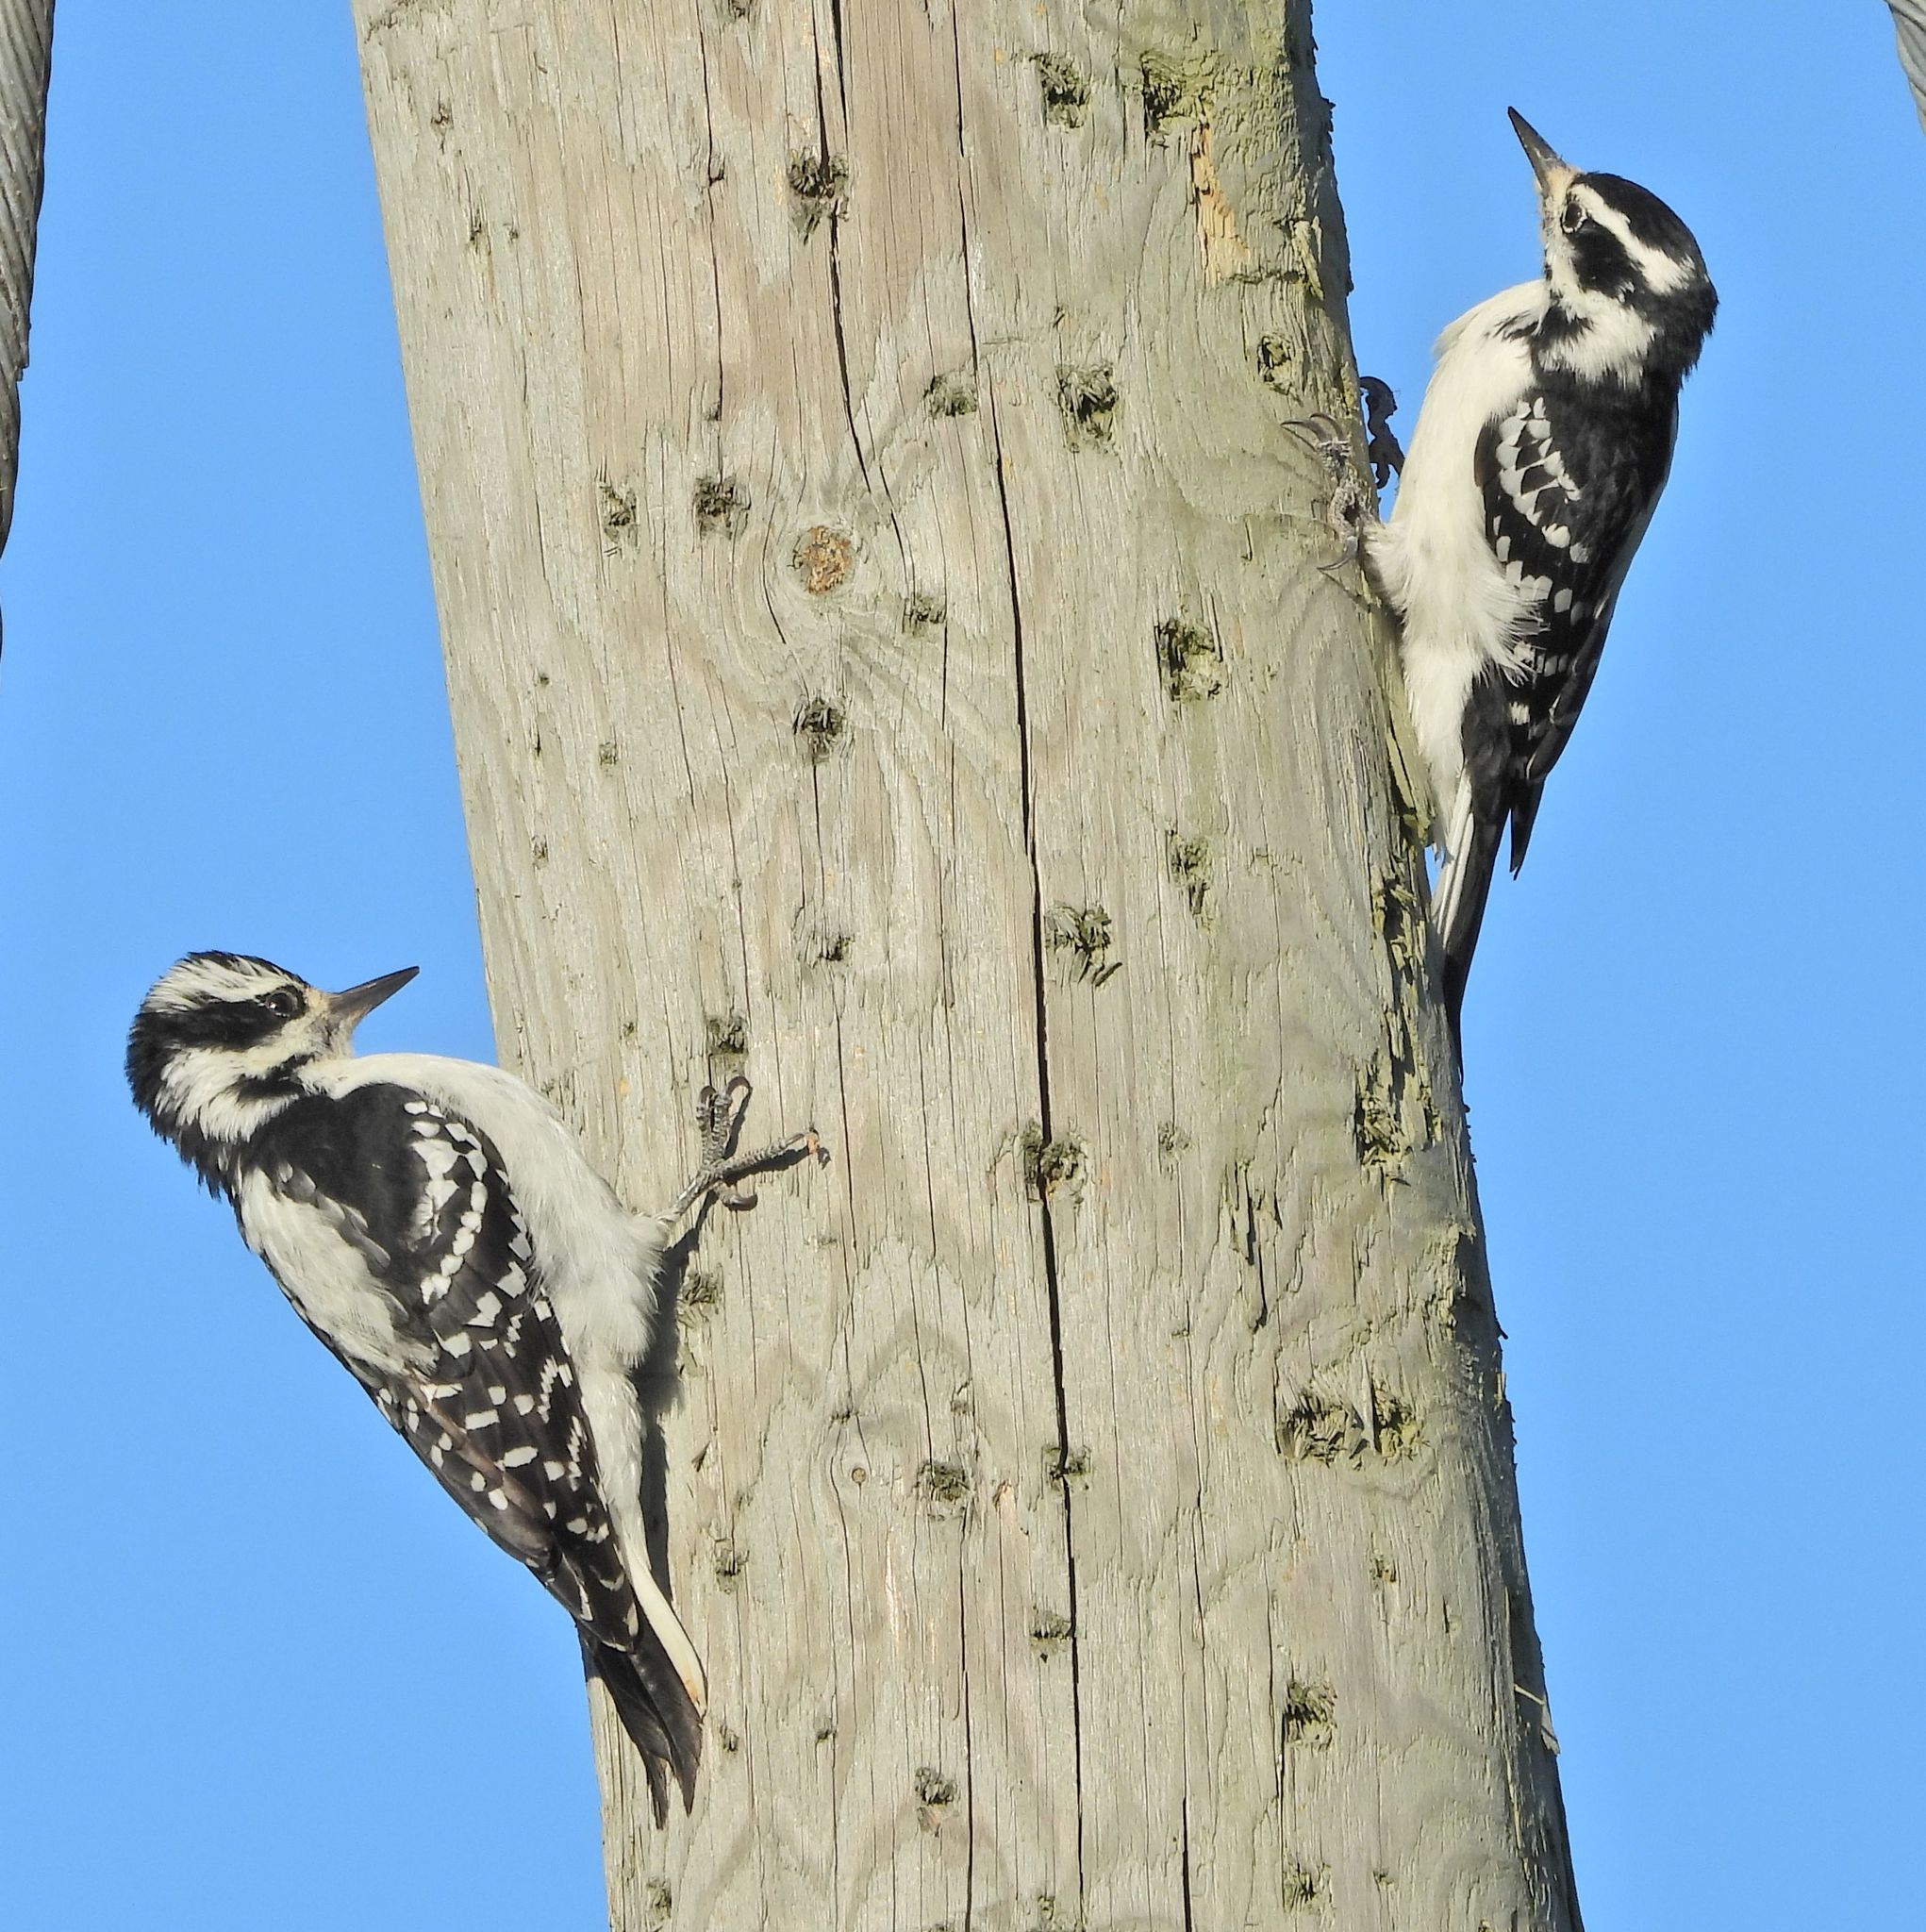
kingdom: Animalia
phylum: Chordata
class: Aves
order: Piciformes
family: Picidae
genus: Leuconotopicus
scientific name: Leuconotopicus villosus
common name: Hairy woodpecker
